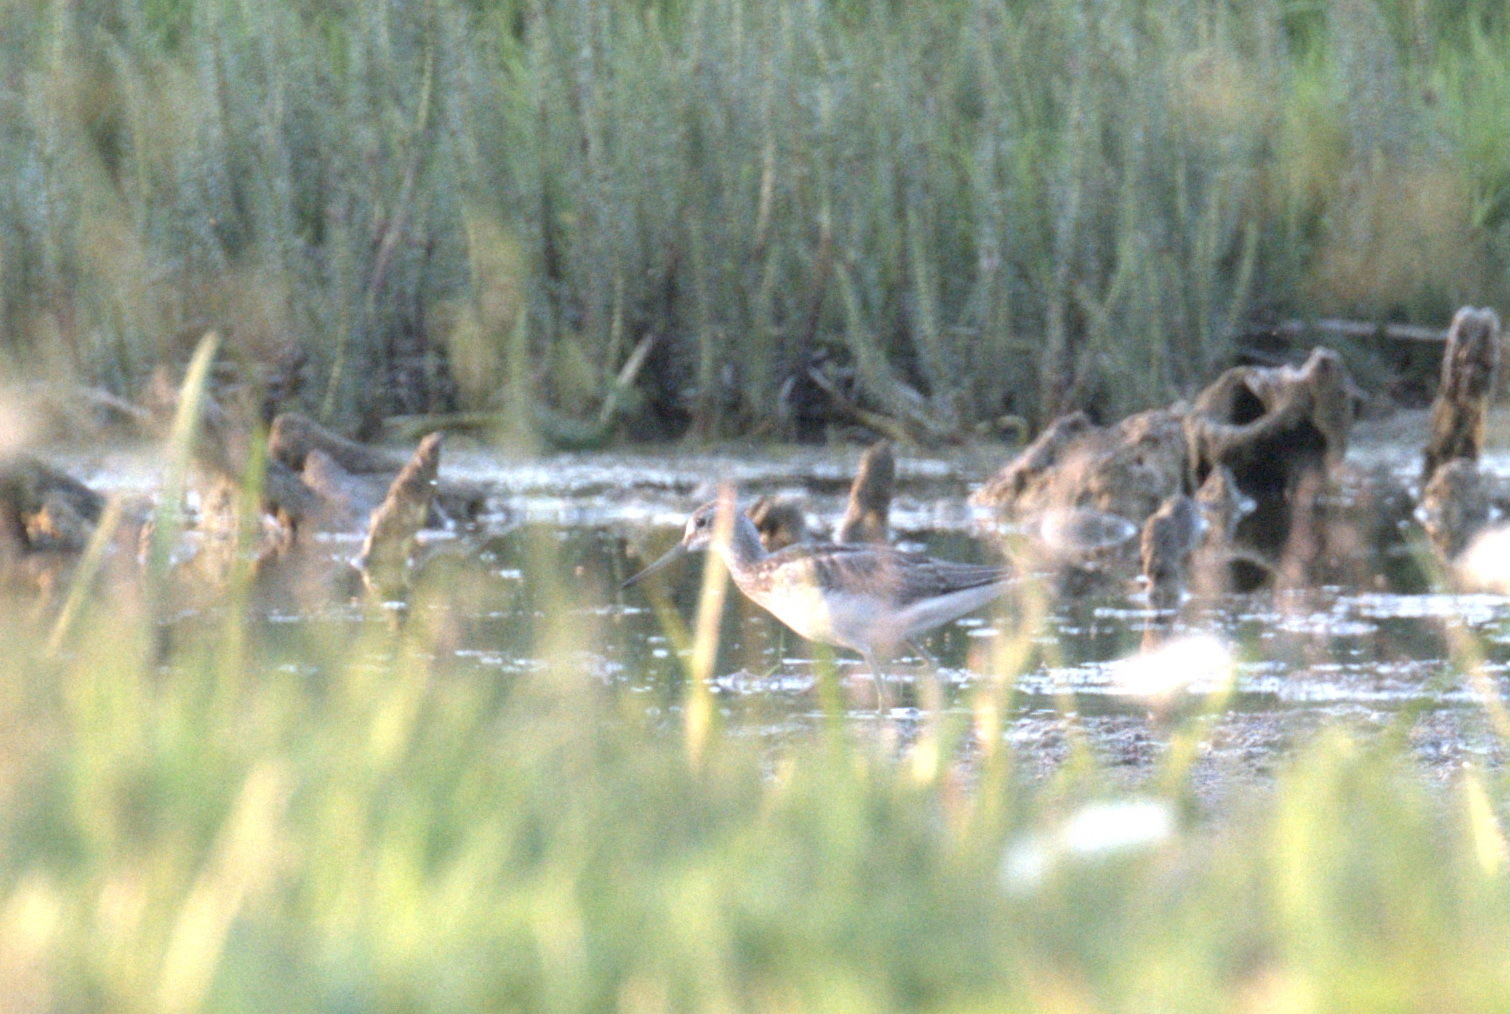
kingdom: Animalia
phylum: Chordata
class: Aves
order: Charadriiformes
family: Scolopacidae
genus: Tringa
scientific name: Tringa nebularia
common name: Common greenshank
